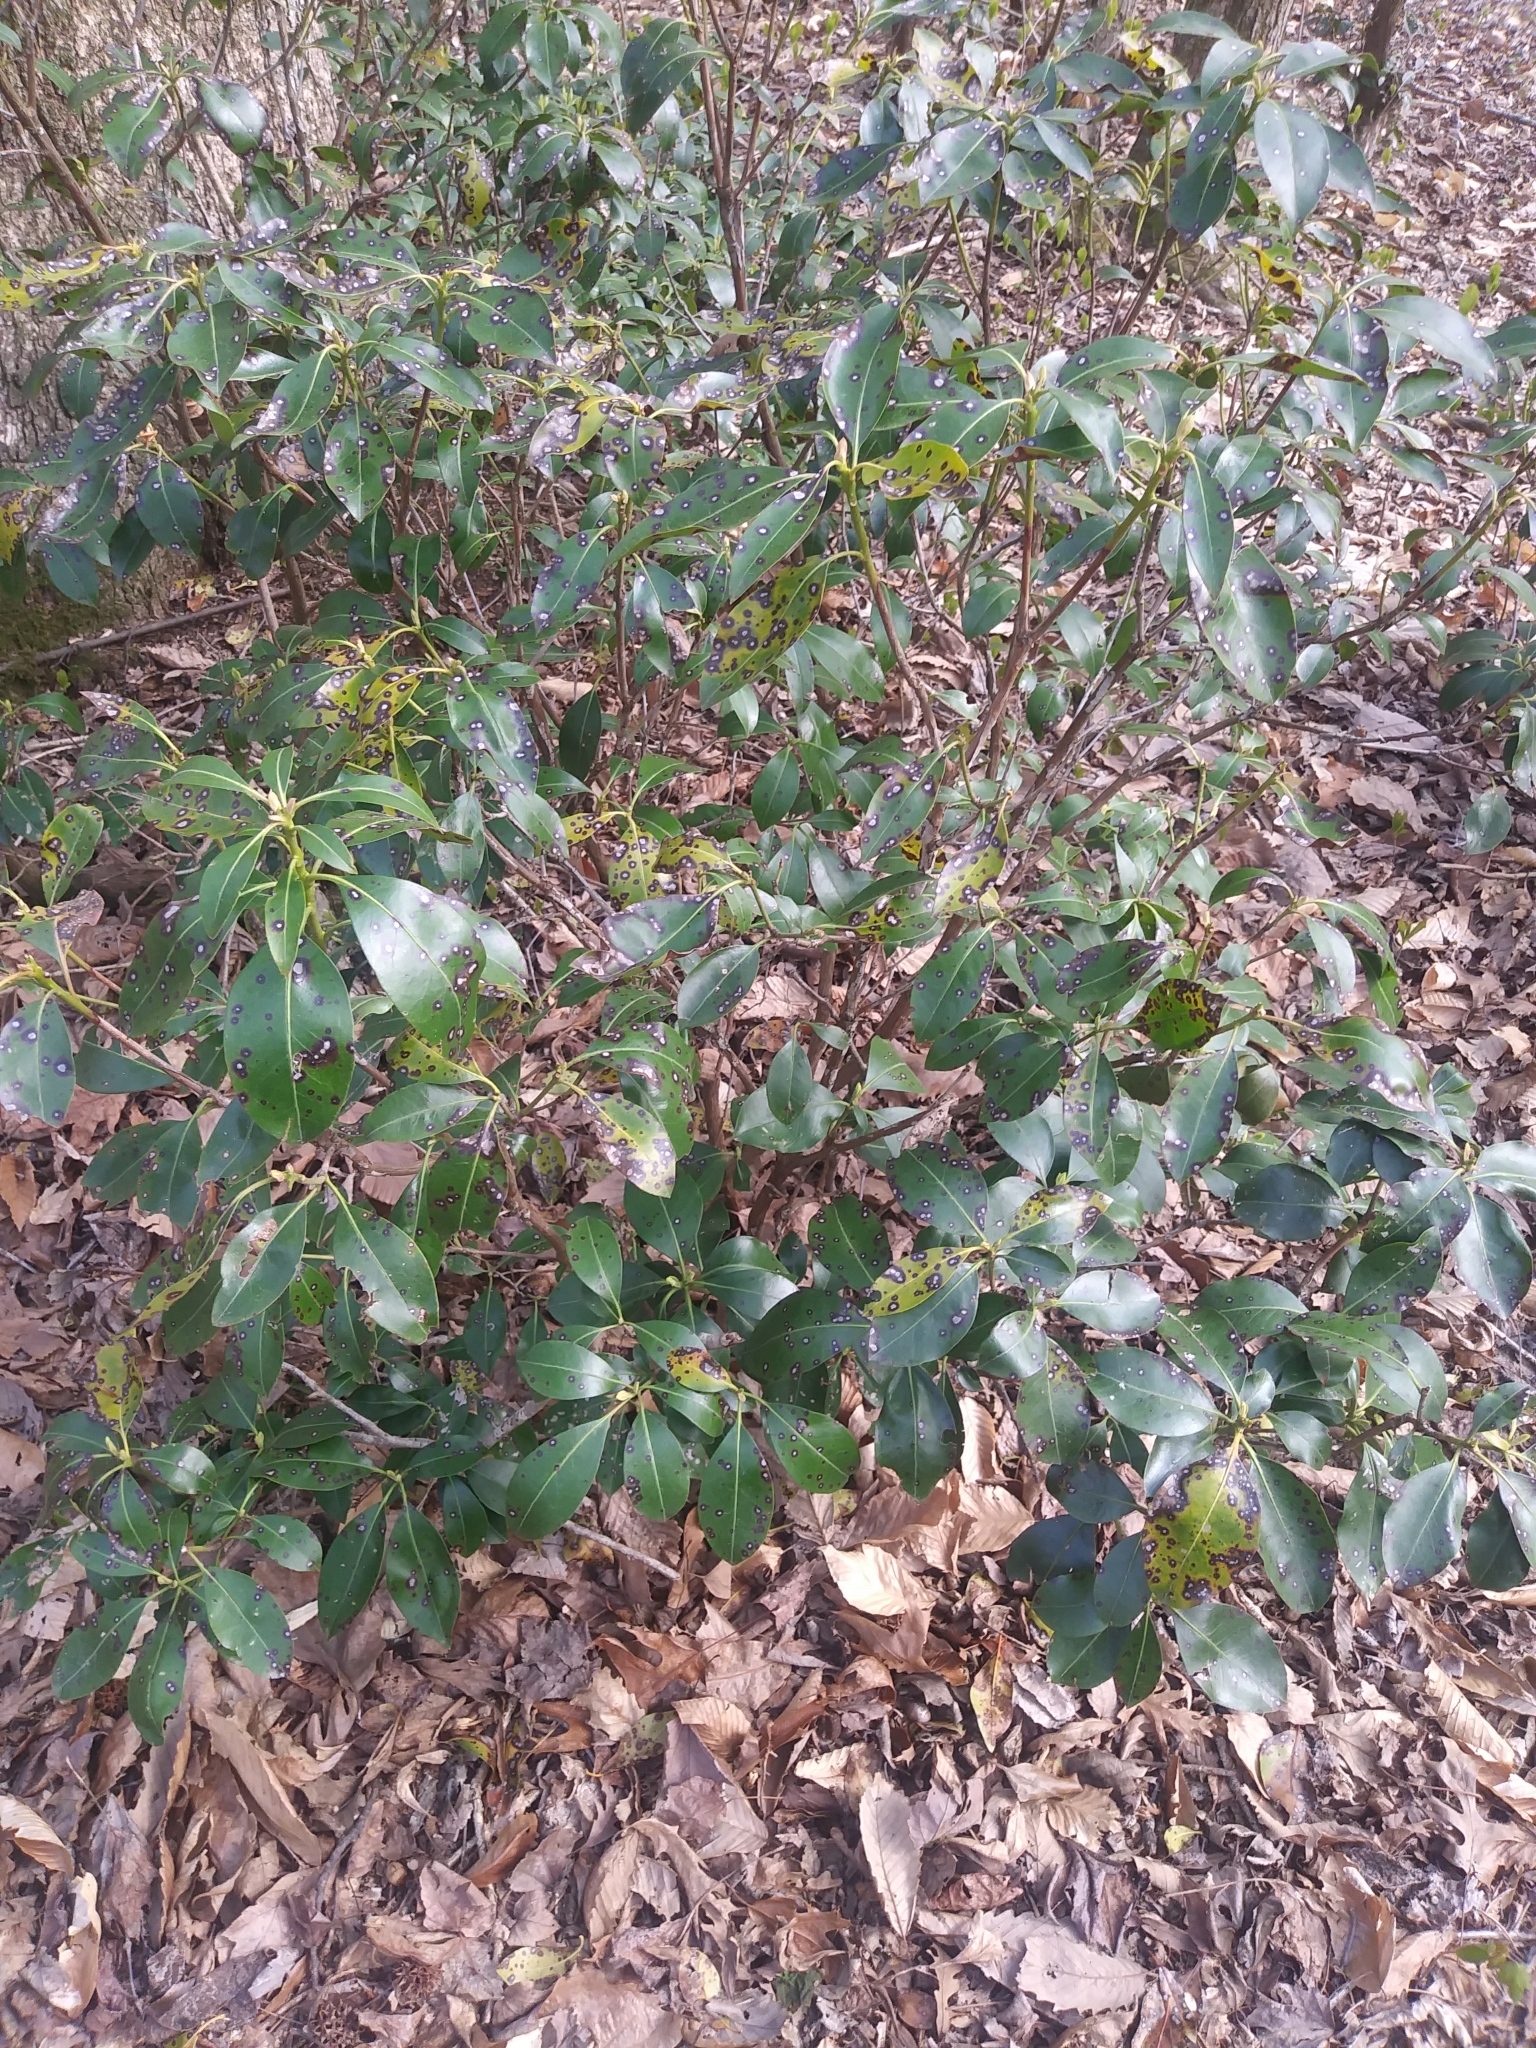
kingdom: Plantae
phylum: Tracheophyta
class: Magnoliopsida
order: Ericales
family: Ericaceae
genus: Kalmia
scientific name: Kalmia latifolia
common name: Mountain-laurel
